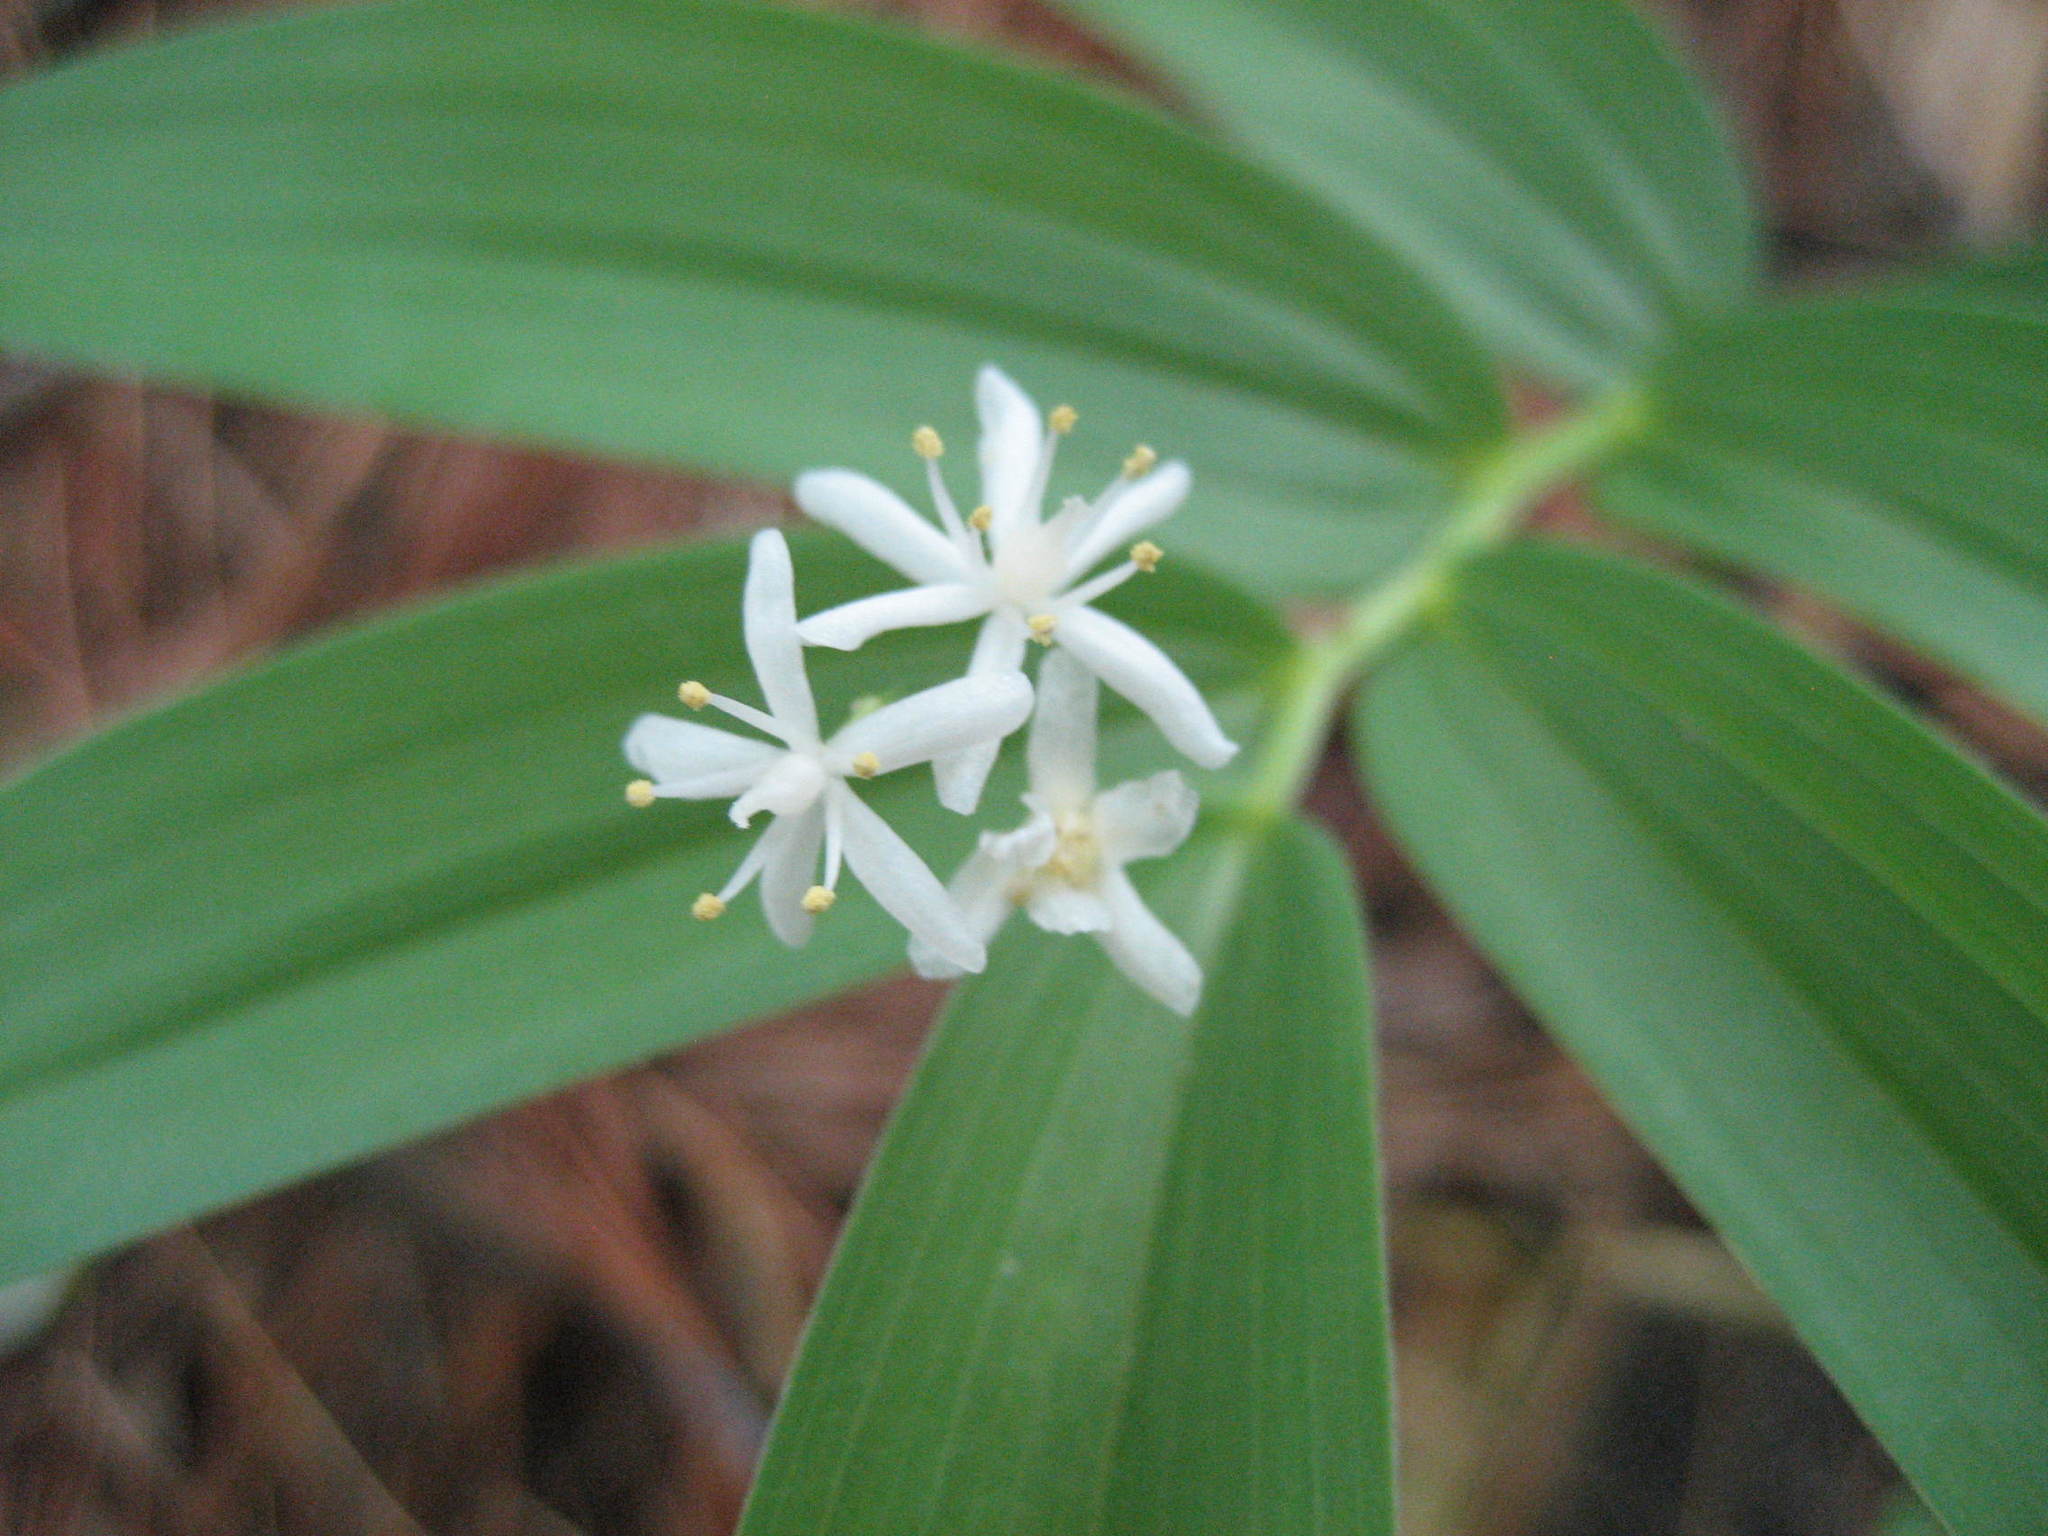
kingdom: Plantae
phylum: Tracheophyta
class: Liliopsida
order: Asparagales
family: Asparagaceae
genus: Maianthemum
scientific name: Maianthemum stellatum
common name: Little false solomon's seal
